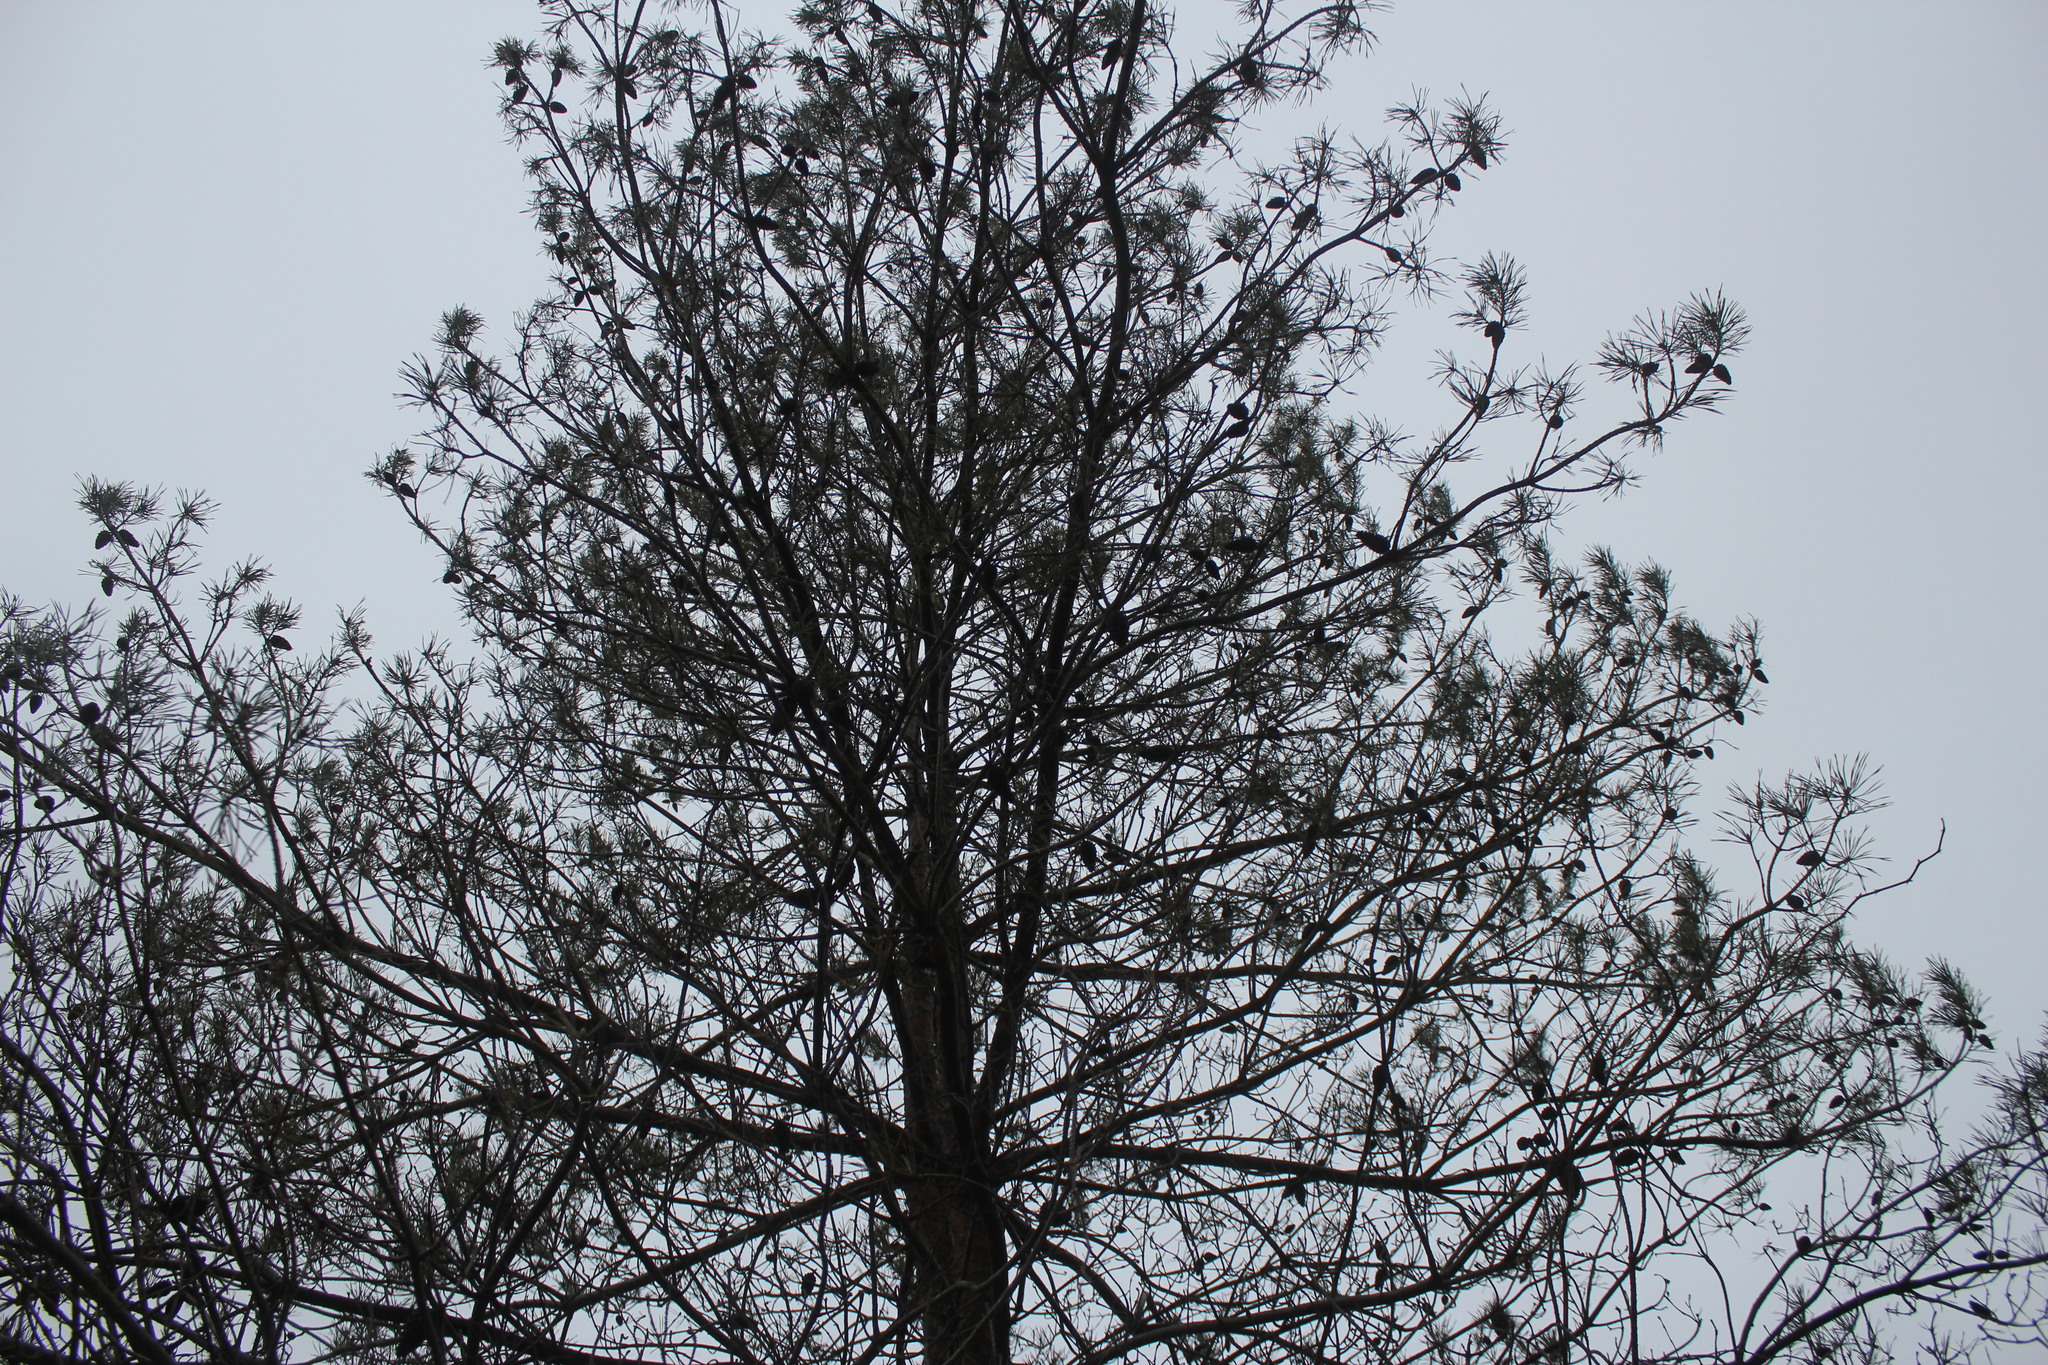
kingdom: Plantae
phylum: Tracheophyta
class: Pinopsida
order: Pinales
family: Pinaceae
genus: Pinus
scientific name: Pinus sylvestris
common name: Scots pine
